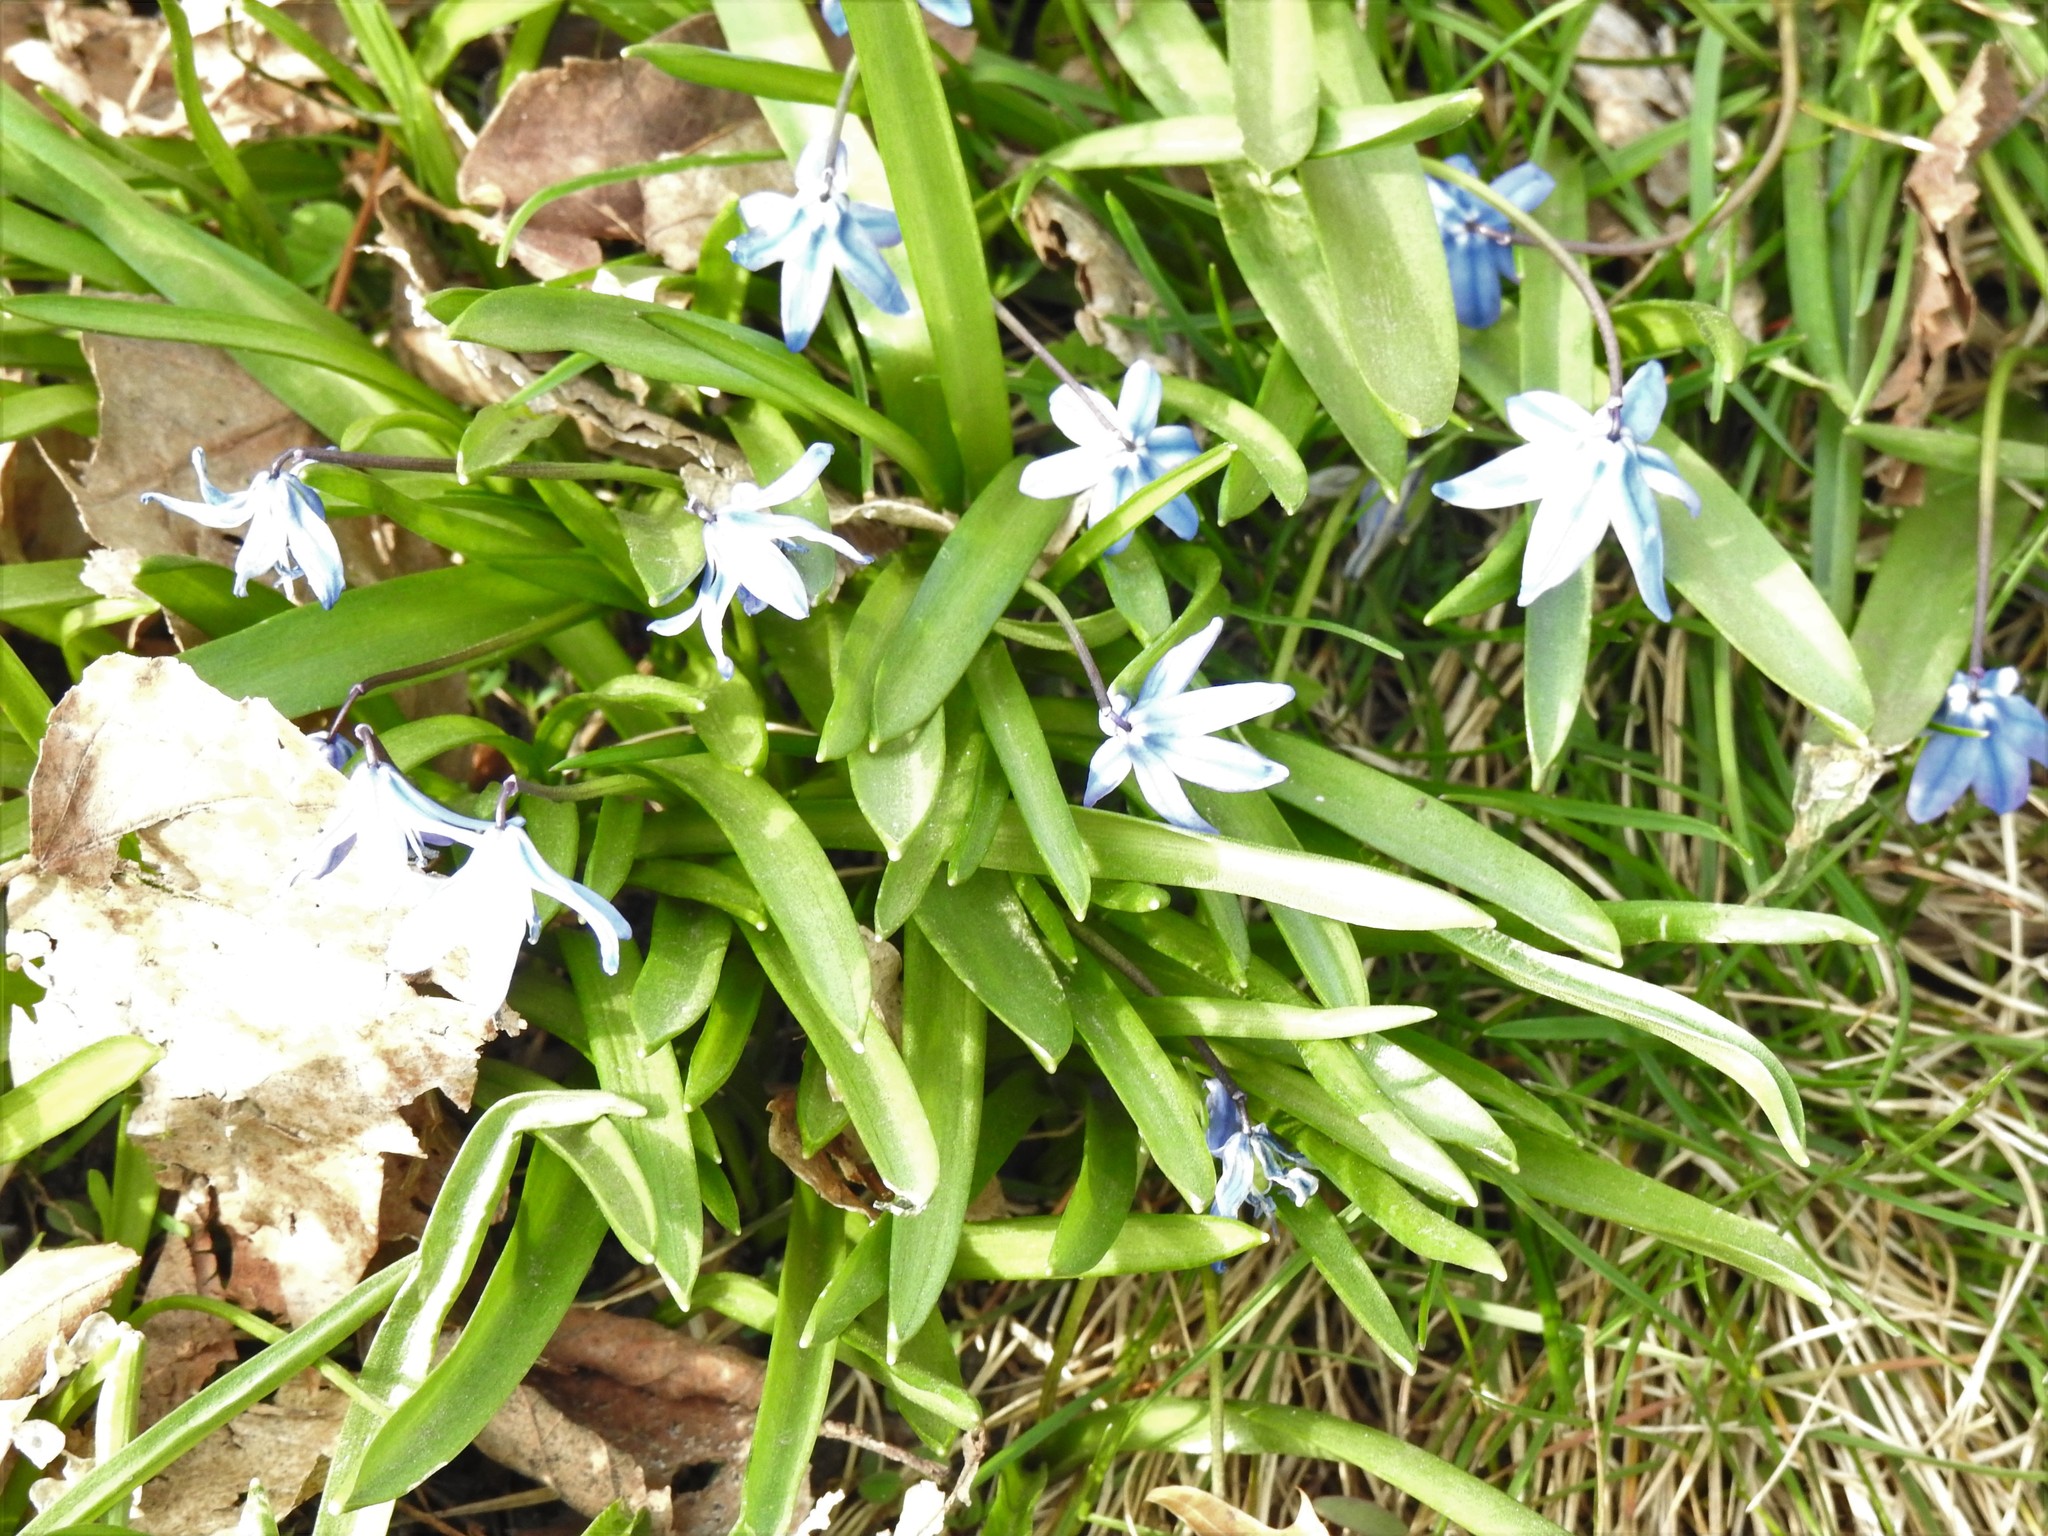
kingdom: Plantae
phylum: Tracheophyta
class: Liliopsida
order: Asparagales
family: Asparagaceae
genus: Scilla
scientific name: Scilla siberica
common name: Siberian squill
